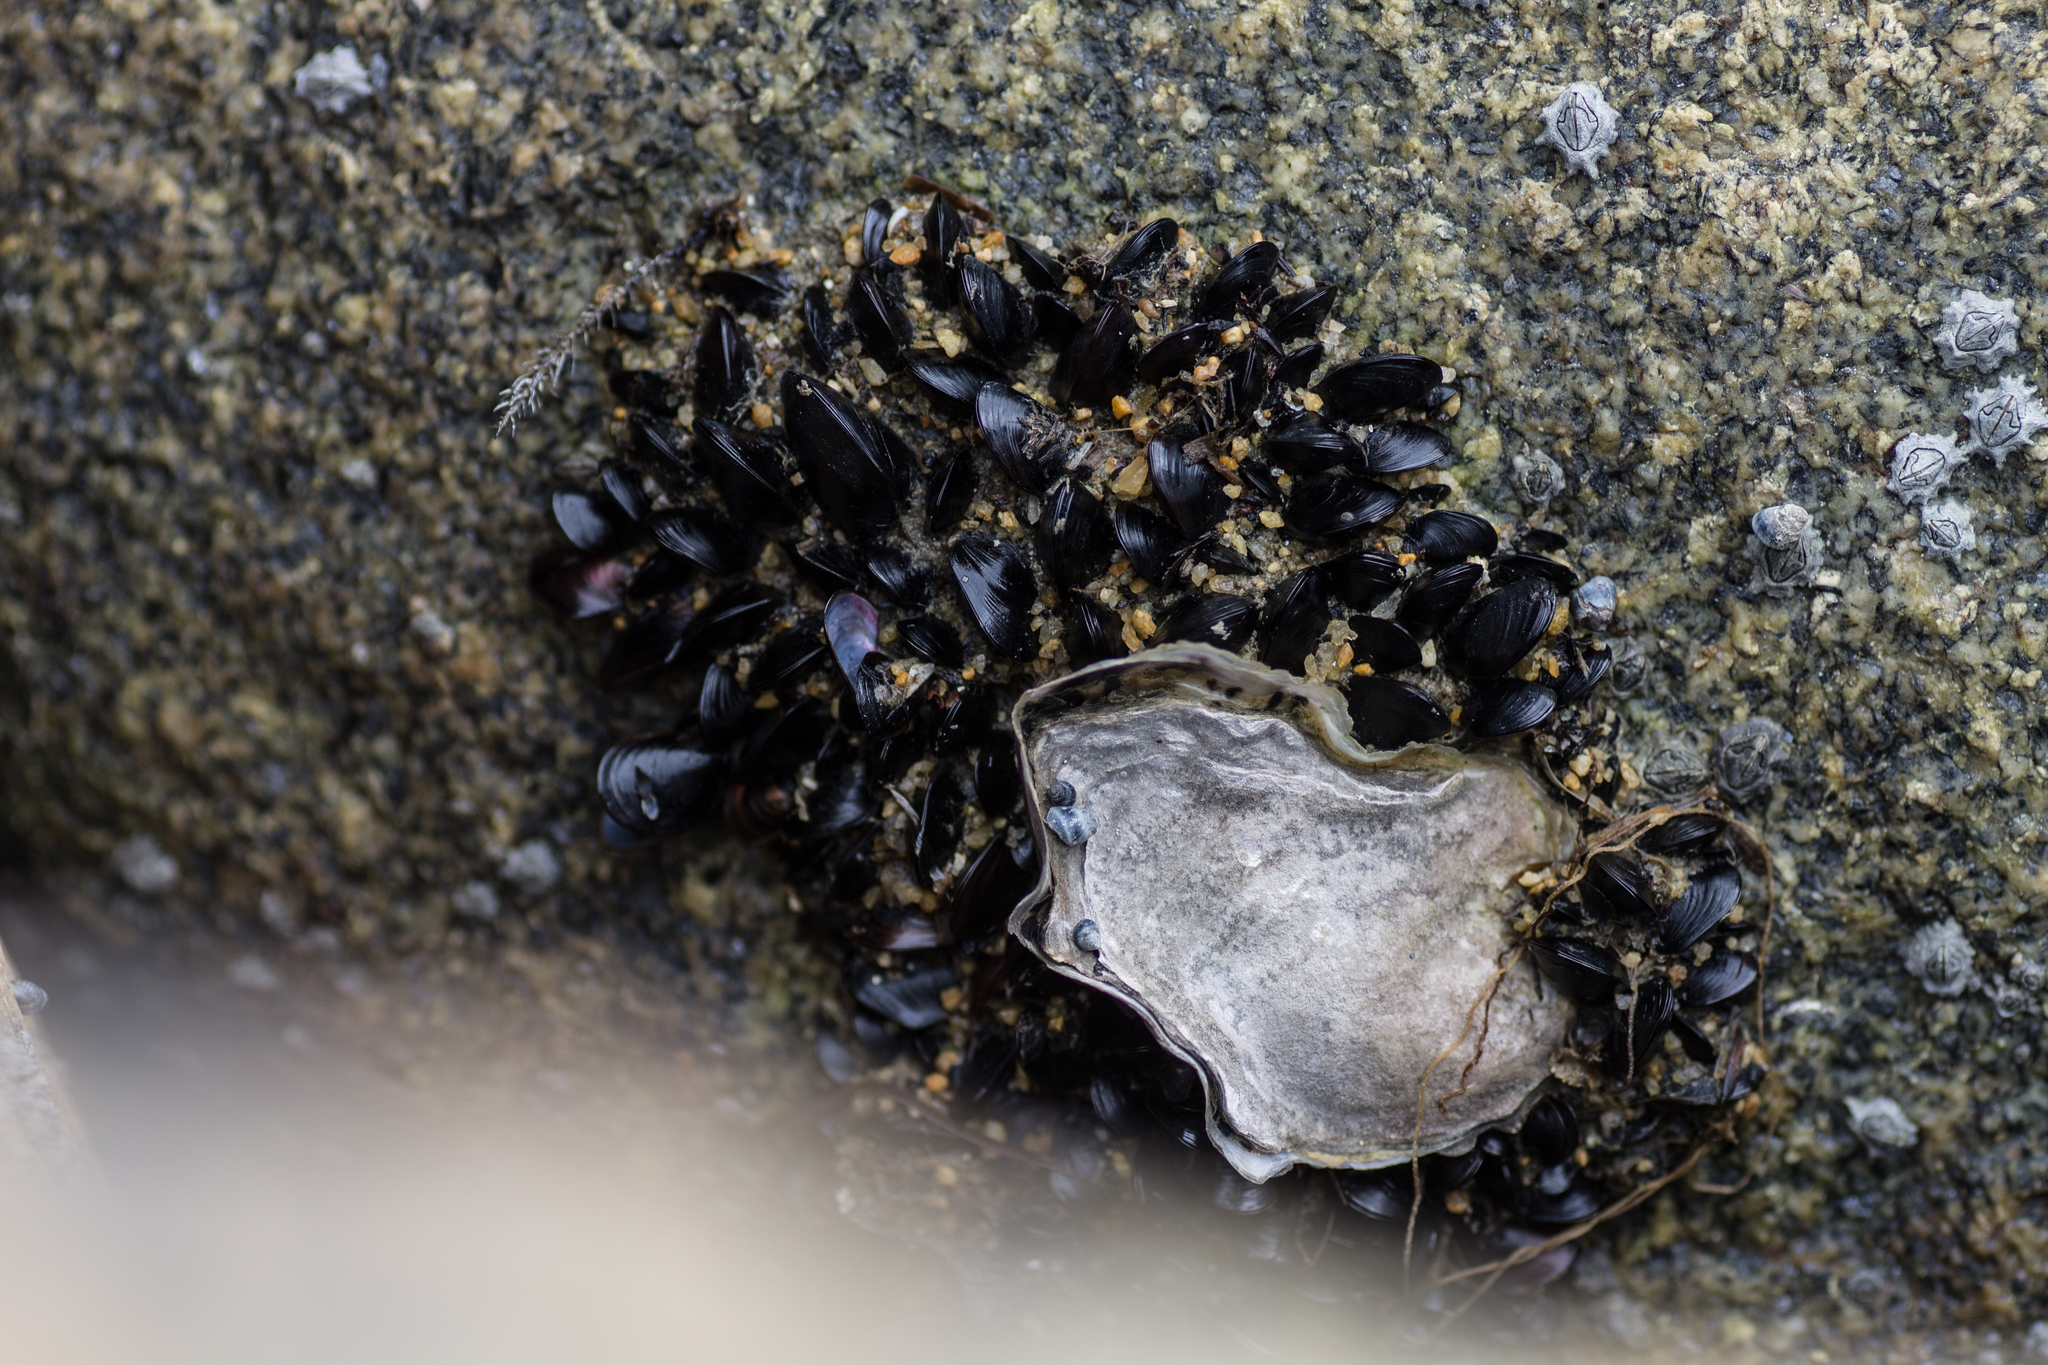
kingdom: Animalia
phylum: Mollusca
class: Bivalvia
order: Ostreida
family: Ostreidae
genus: Magallana
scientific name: Magallana gigas
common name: Pacific oyster
